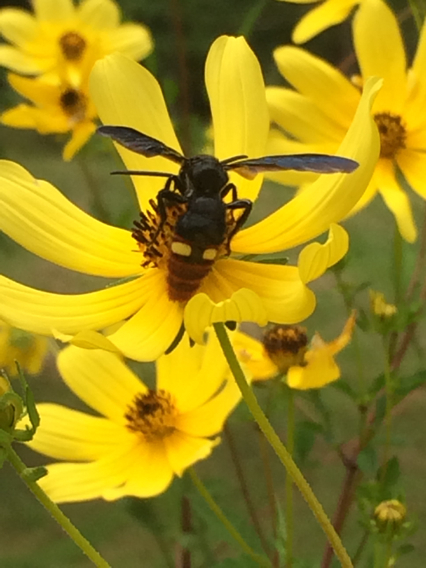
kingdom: Animalia
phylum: Arthropoda
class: Insecta
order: Hymenoptera
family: Scoliidae
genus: Scolia
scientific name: Scolia dubia
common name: Blue-winged scoliid wasp
